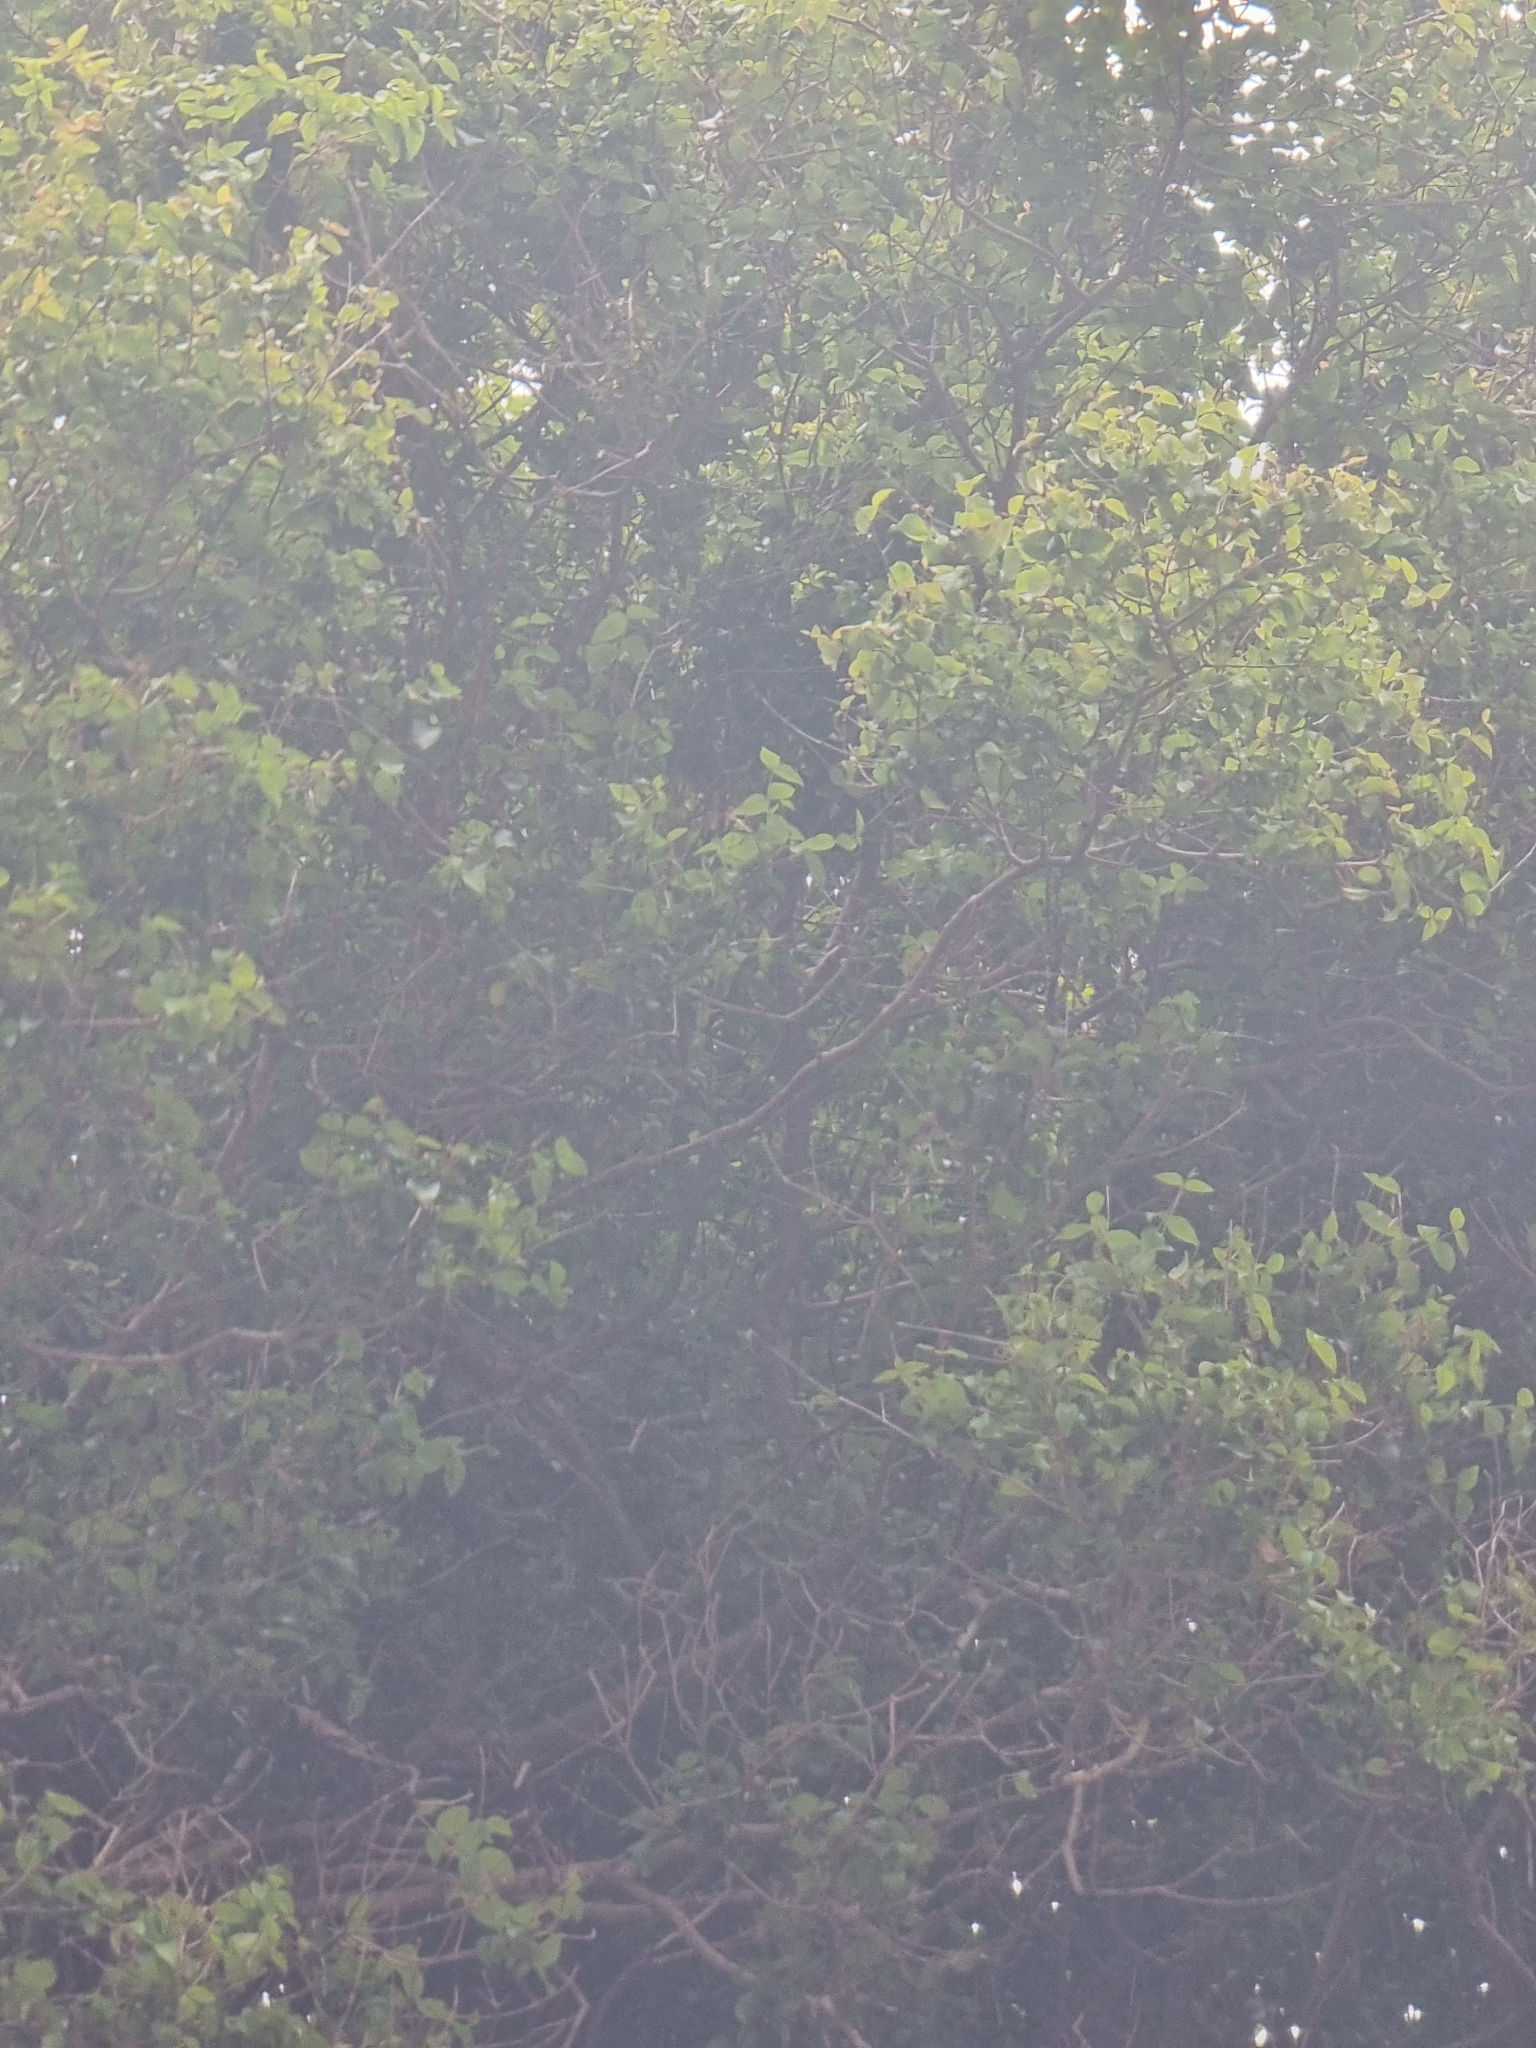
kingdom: Plantae
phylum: Tracheophyta
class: Magnoliopsida
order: Myrtales
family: Myrtaceae
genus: Eugenia
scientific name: Eugenia uniflora
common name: Surinam cherry
